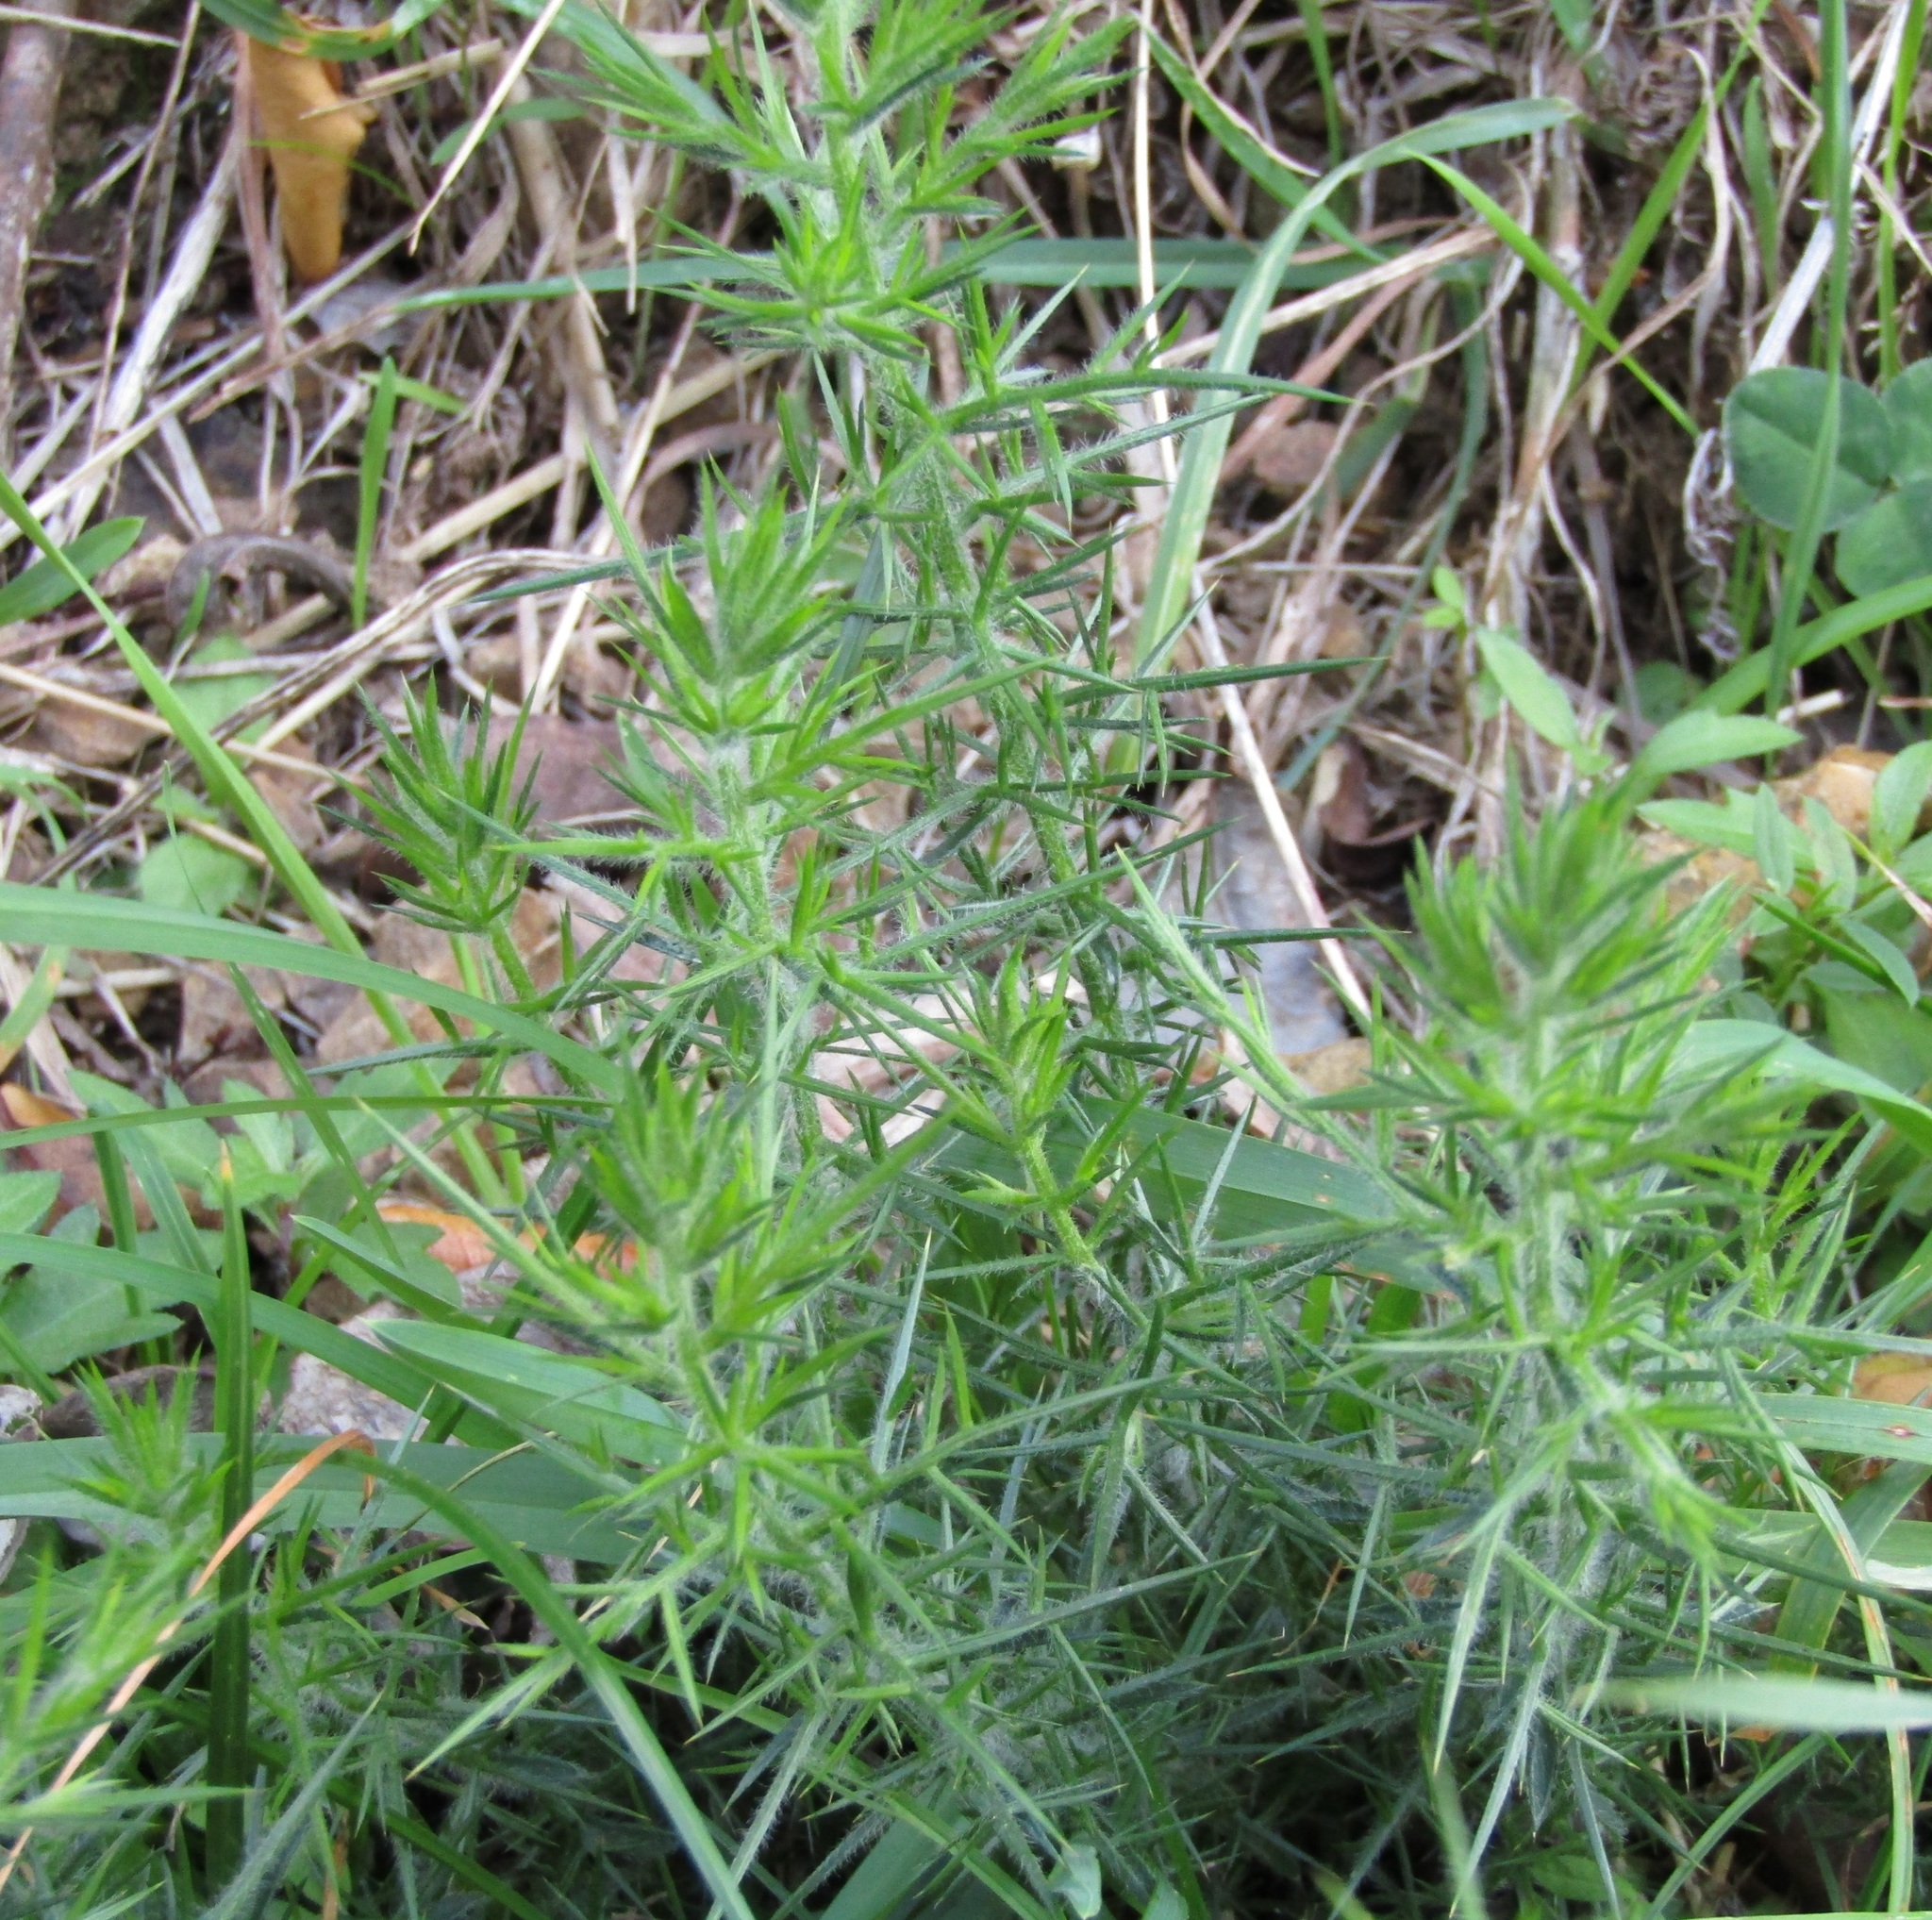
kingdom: Plantae
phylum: Tracheophyta
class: Magnoliopsida
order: Fabales
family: Fabaceae
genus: Ulex
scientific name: Ulex europaeus
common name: Common gorse
